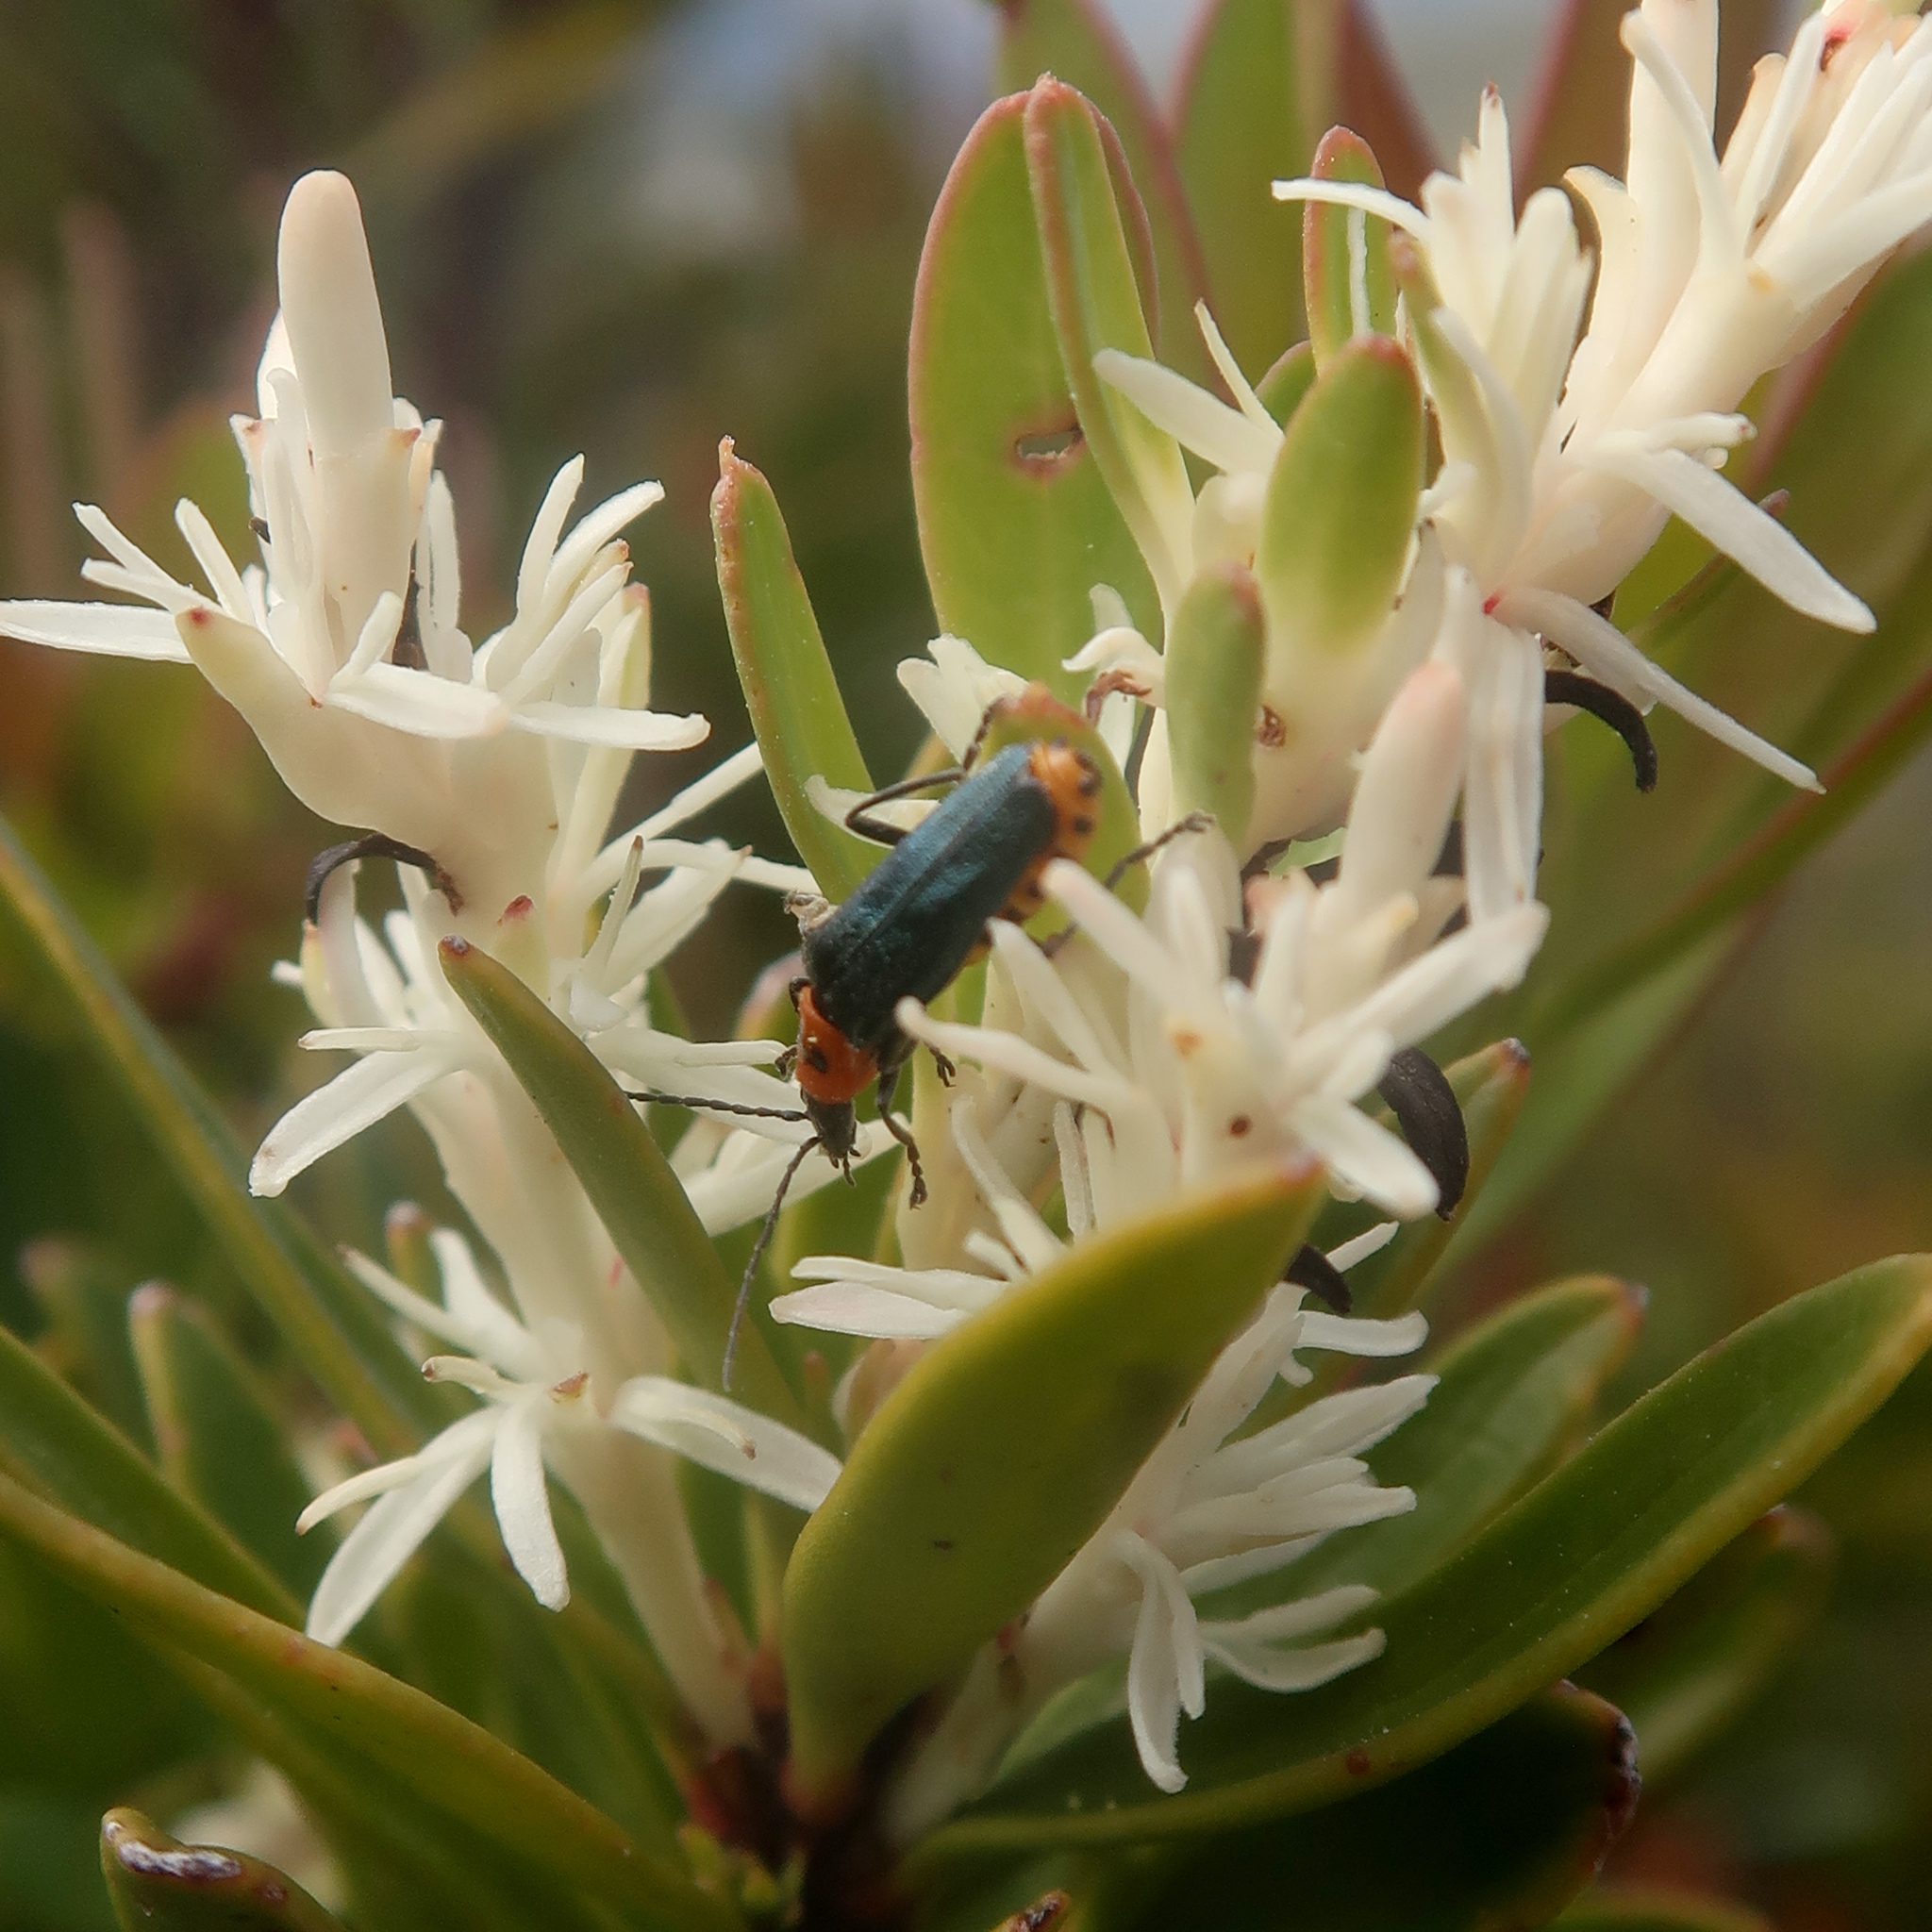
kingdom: Animalia
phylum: Arthropoda
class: Insecta
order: Coleoptera
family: Cantharidae
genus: Chauliognathus
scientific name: Chauliognathus
